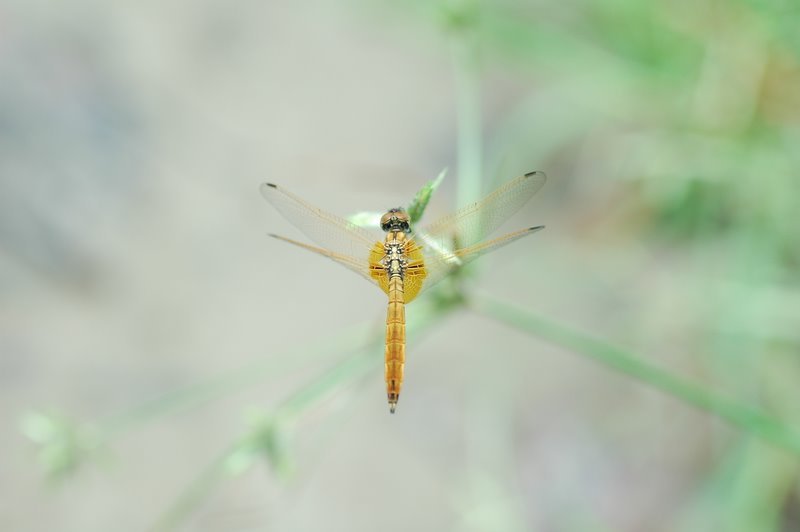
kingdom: Animalia
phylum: Arthropoda
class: Insecta
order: Odonata
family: Libellulidae
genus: Trithemis
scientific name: Trithemis aurora
